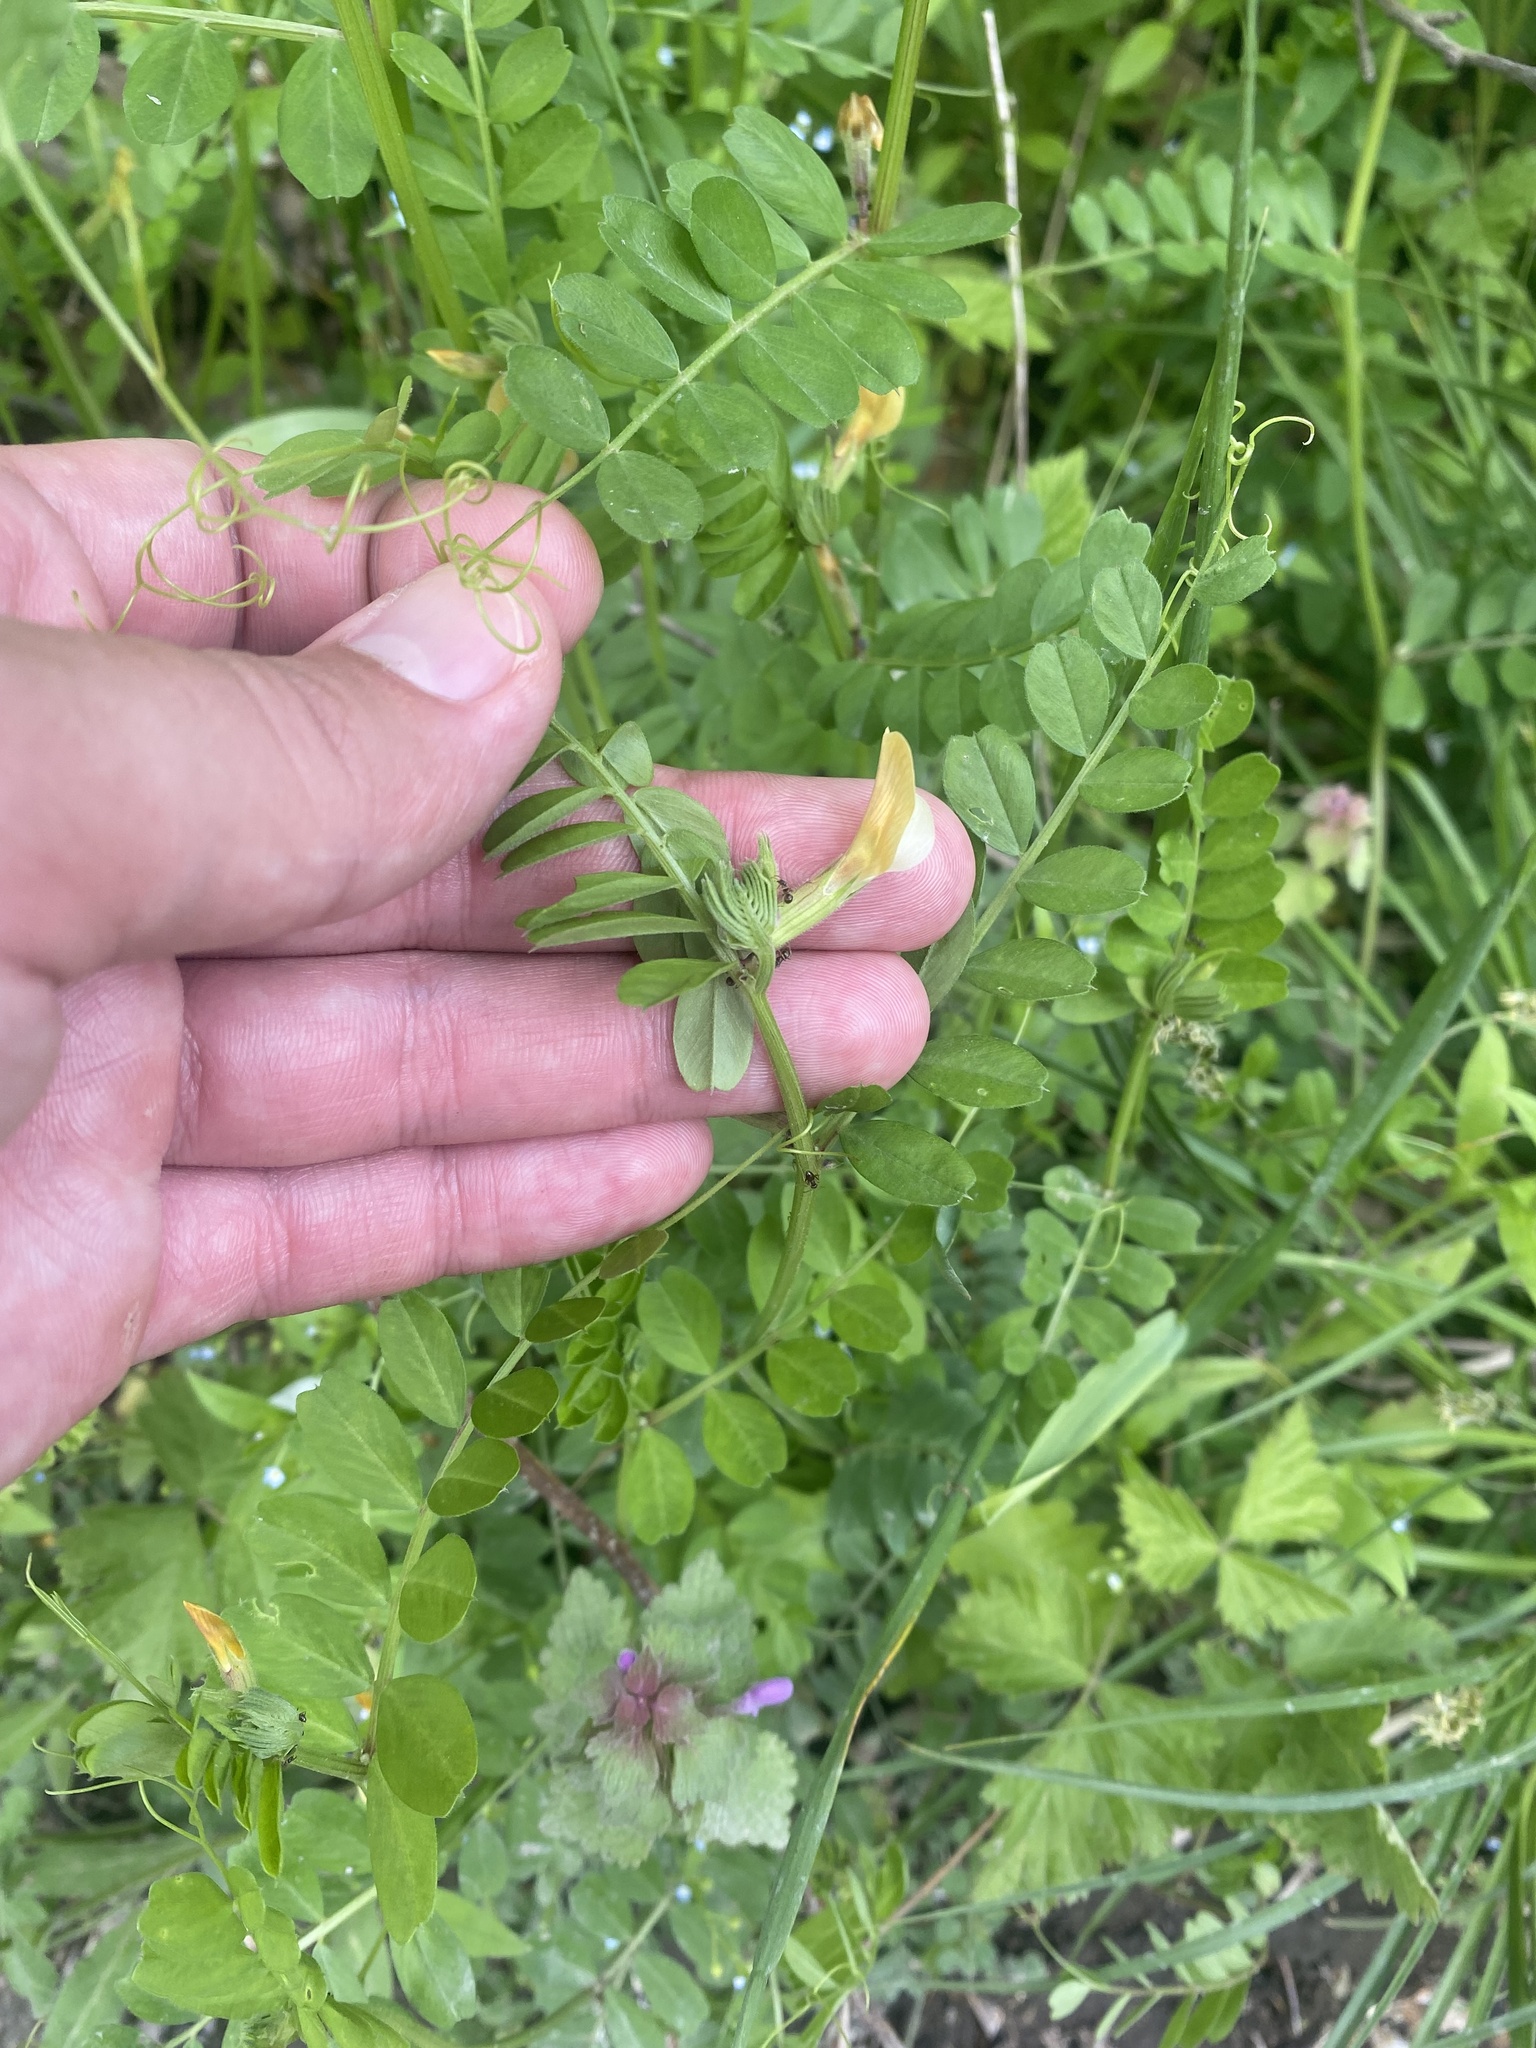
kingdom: Plantae
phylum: Tracheophyta
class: Magnoliopsida
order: Fabales
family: Fabaceae
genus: Vicia
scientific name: Vicia grandiflora
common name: Large yellow vetch
